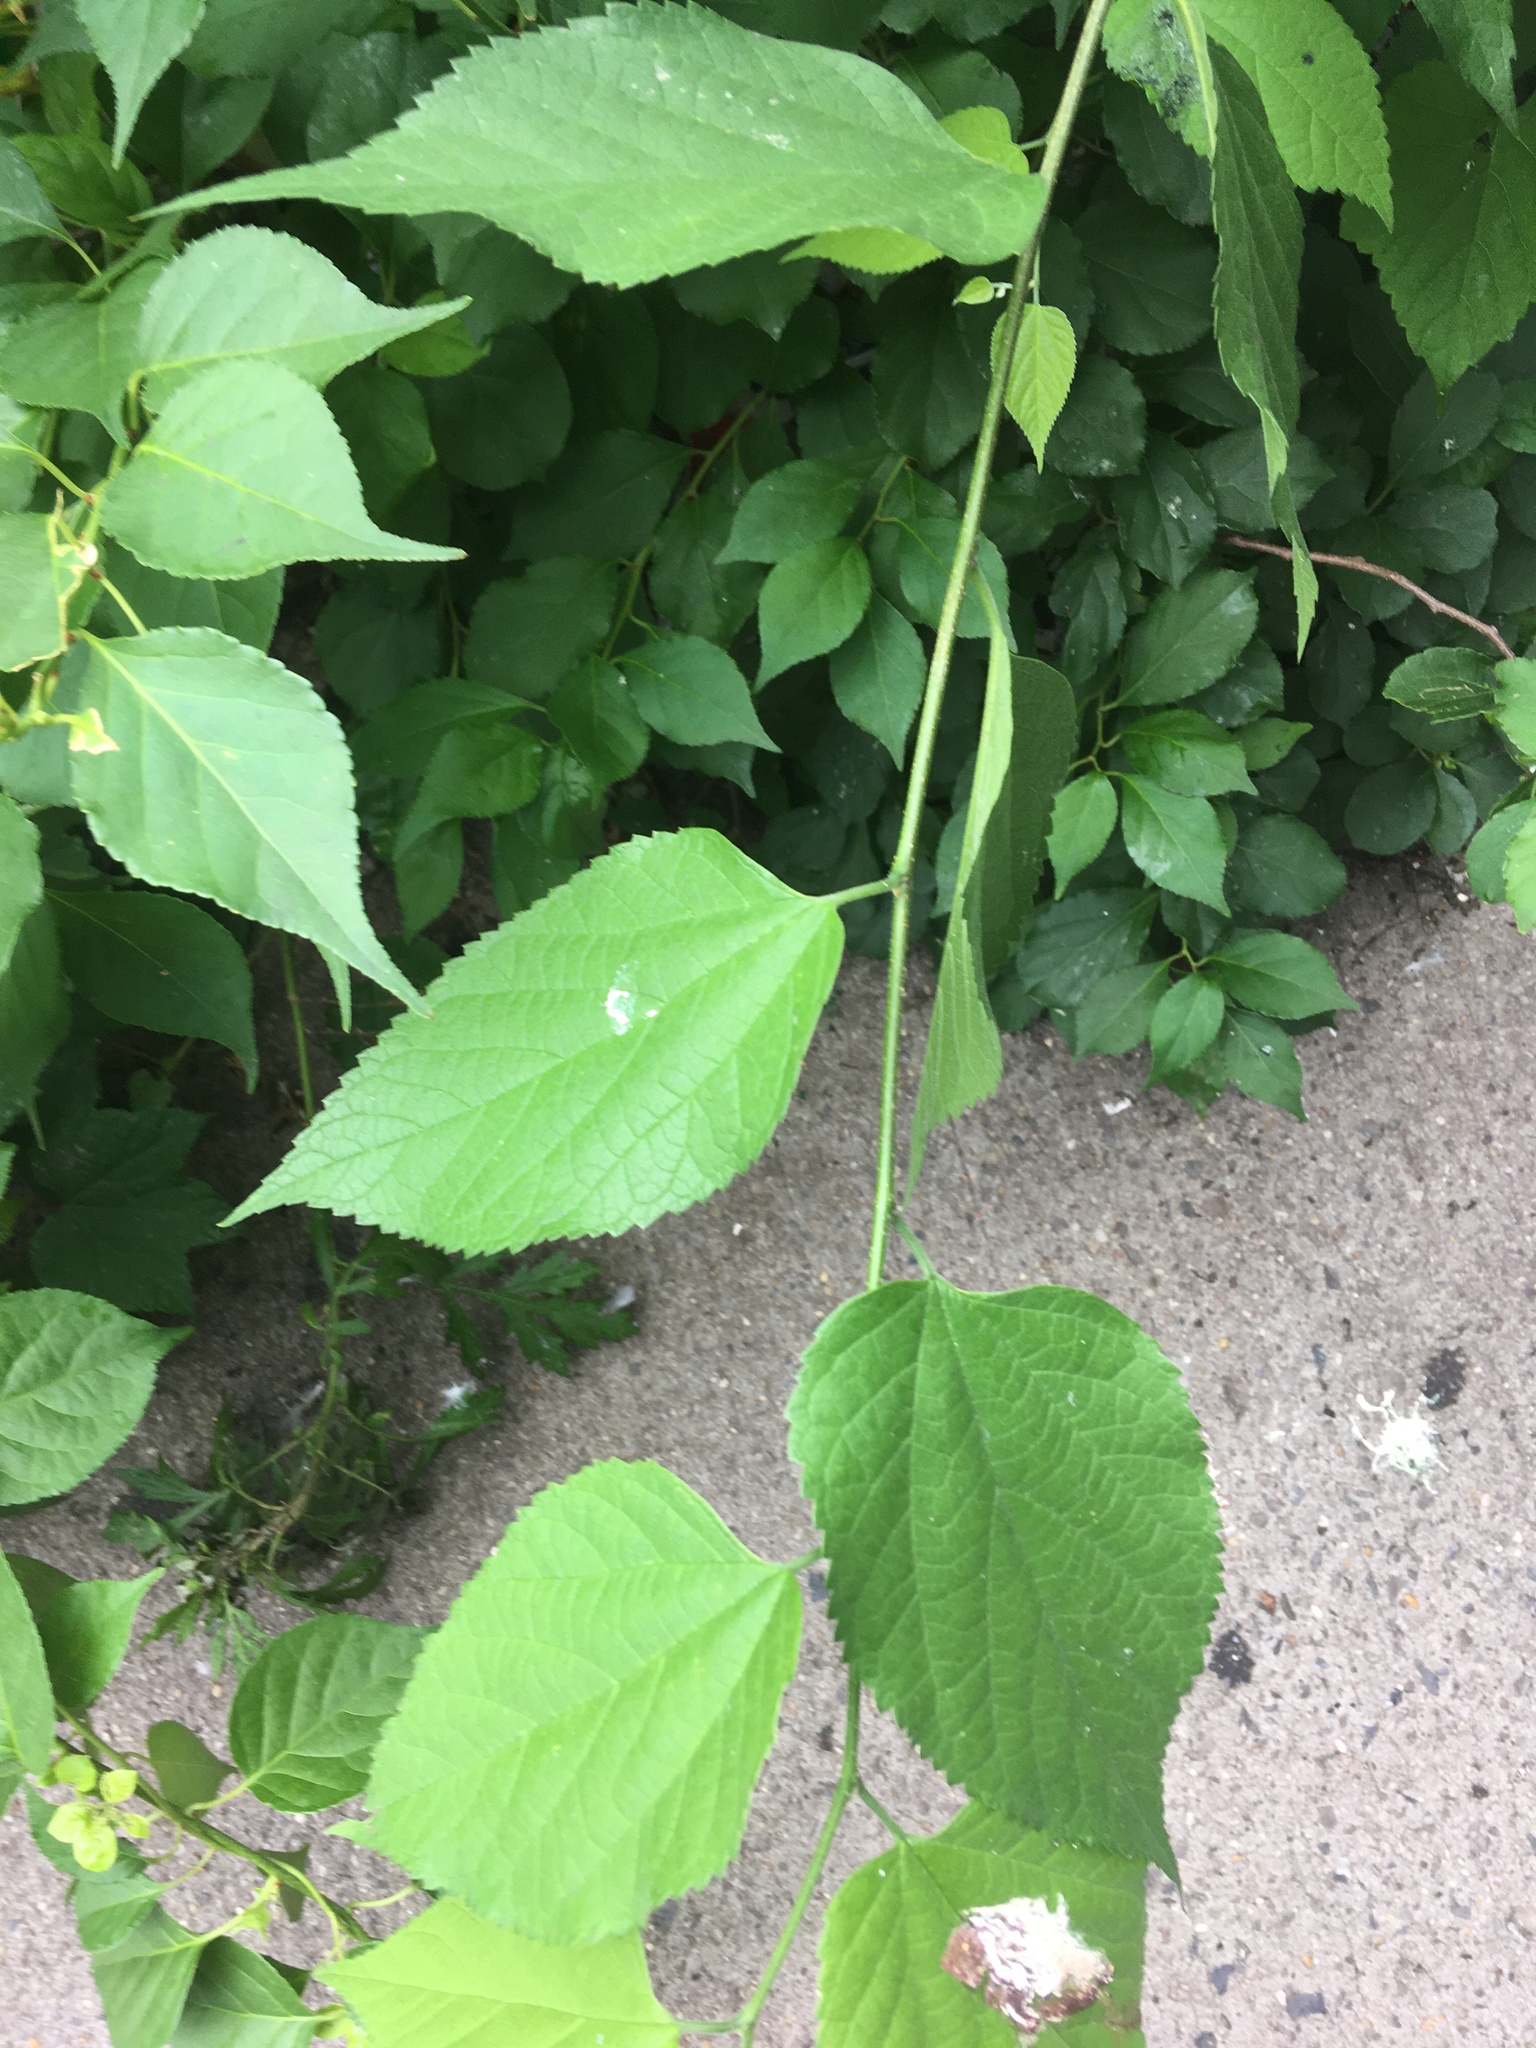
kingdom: Plantae
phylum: Tracheophyta
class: Magnoliopsida
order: Rosales
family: Cannabaceae
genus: Celtis
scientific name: Celtis occidentalis
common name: Common hackberry
